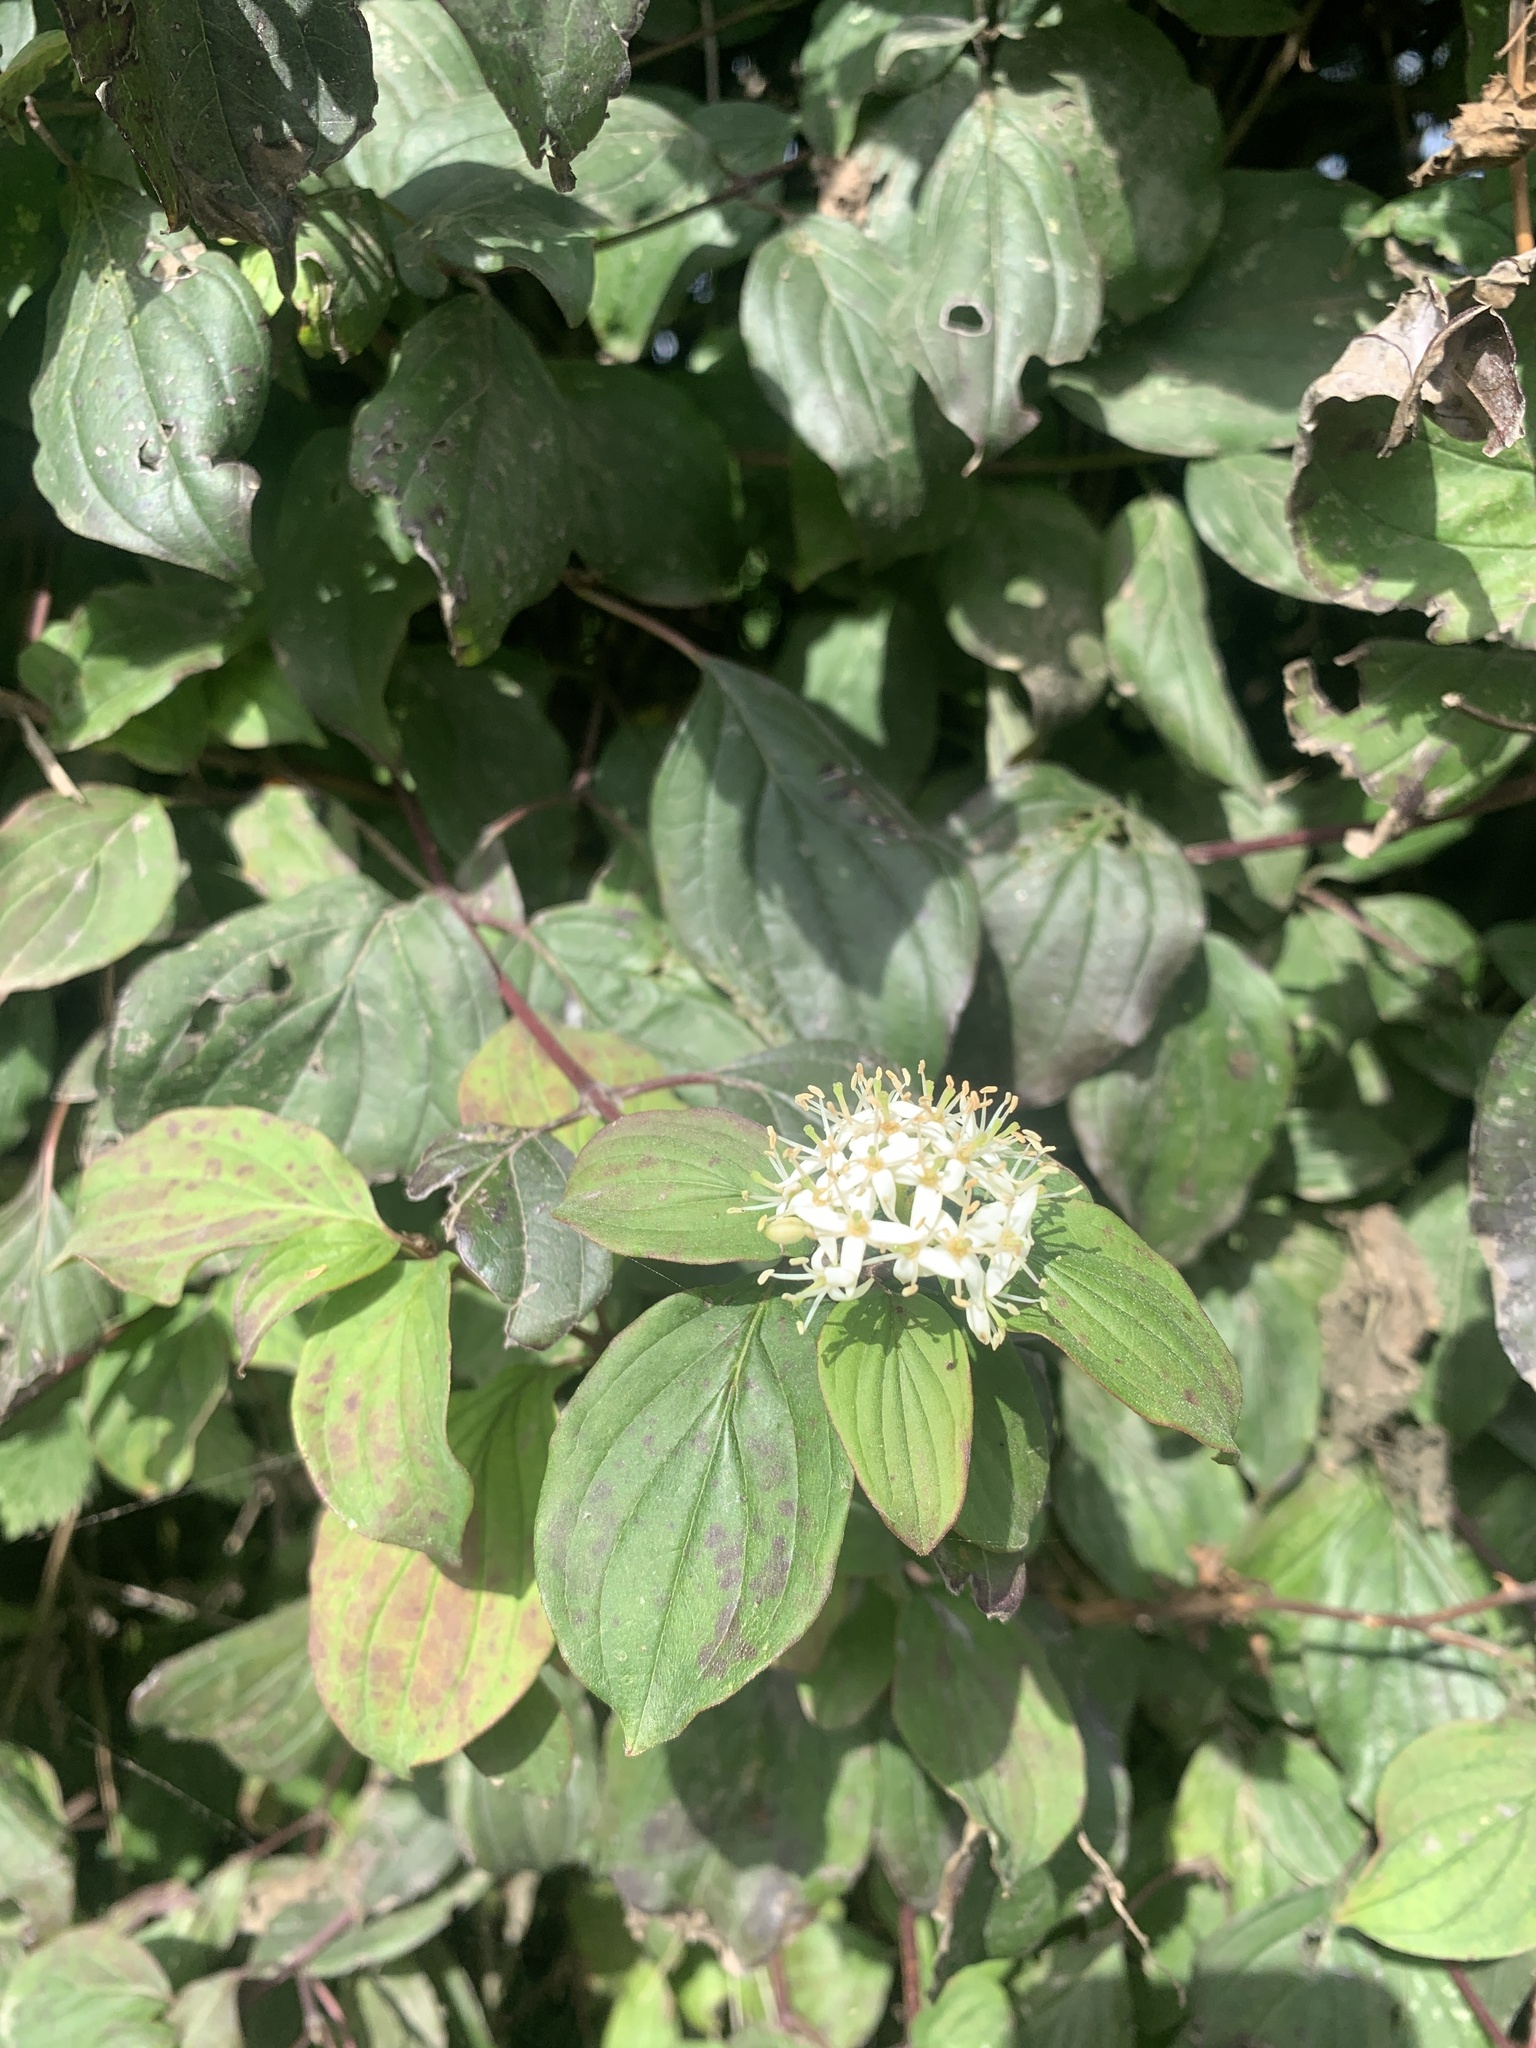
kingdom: Plantae
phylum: Tracheophyta
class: Magnoliopsida
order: Cornales
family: Cornaceae
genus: Cornus
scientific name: Cornus sanguinea
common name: Dogwood
